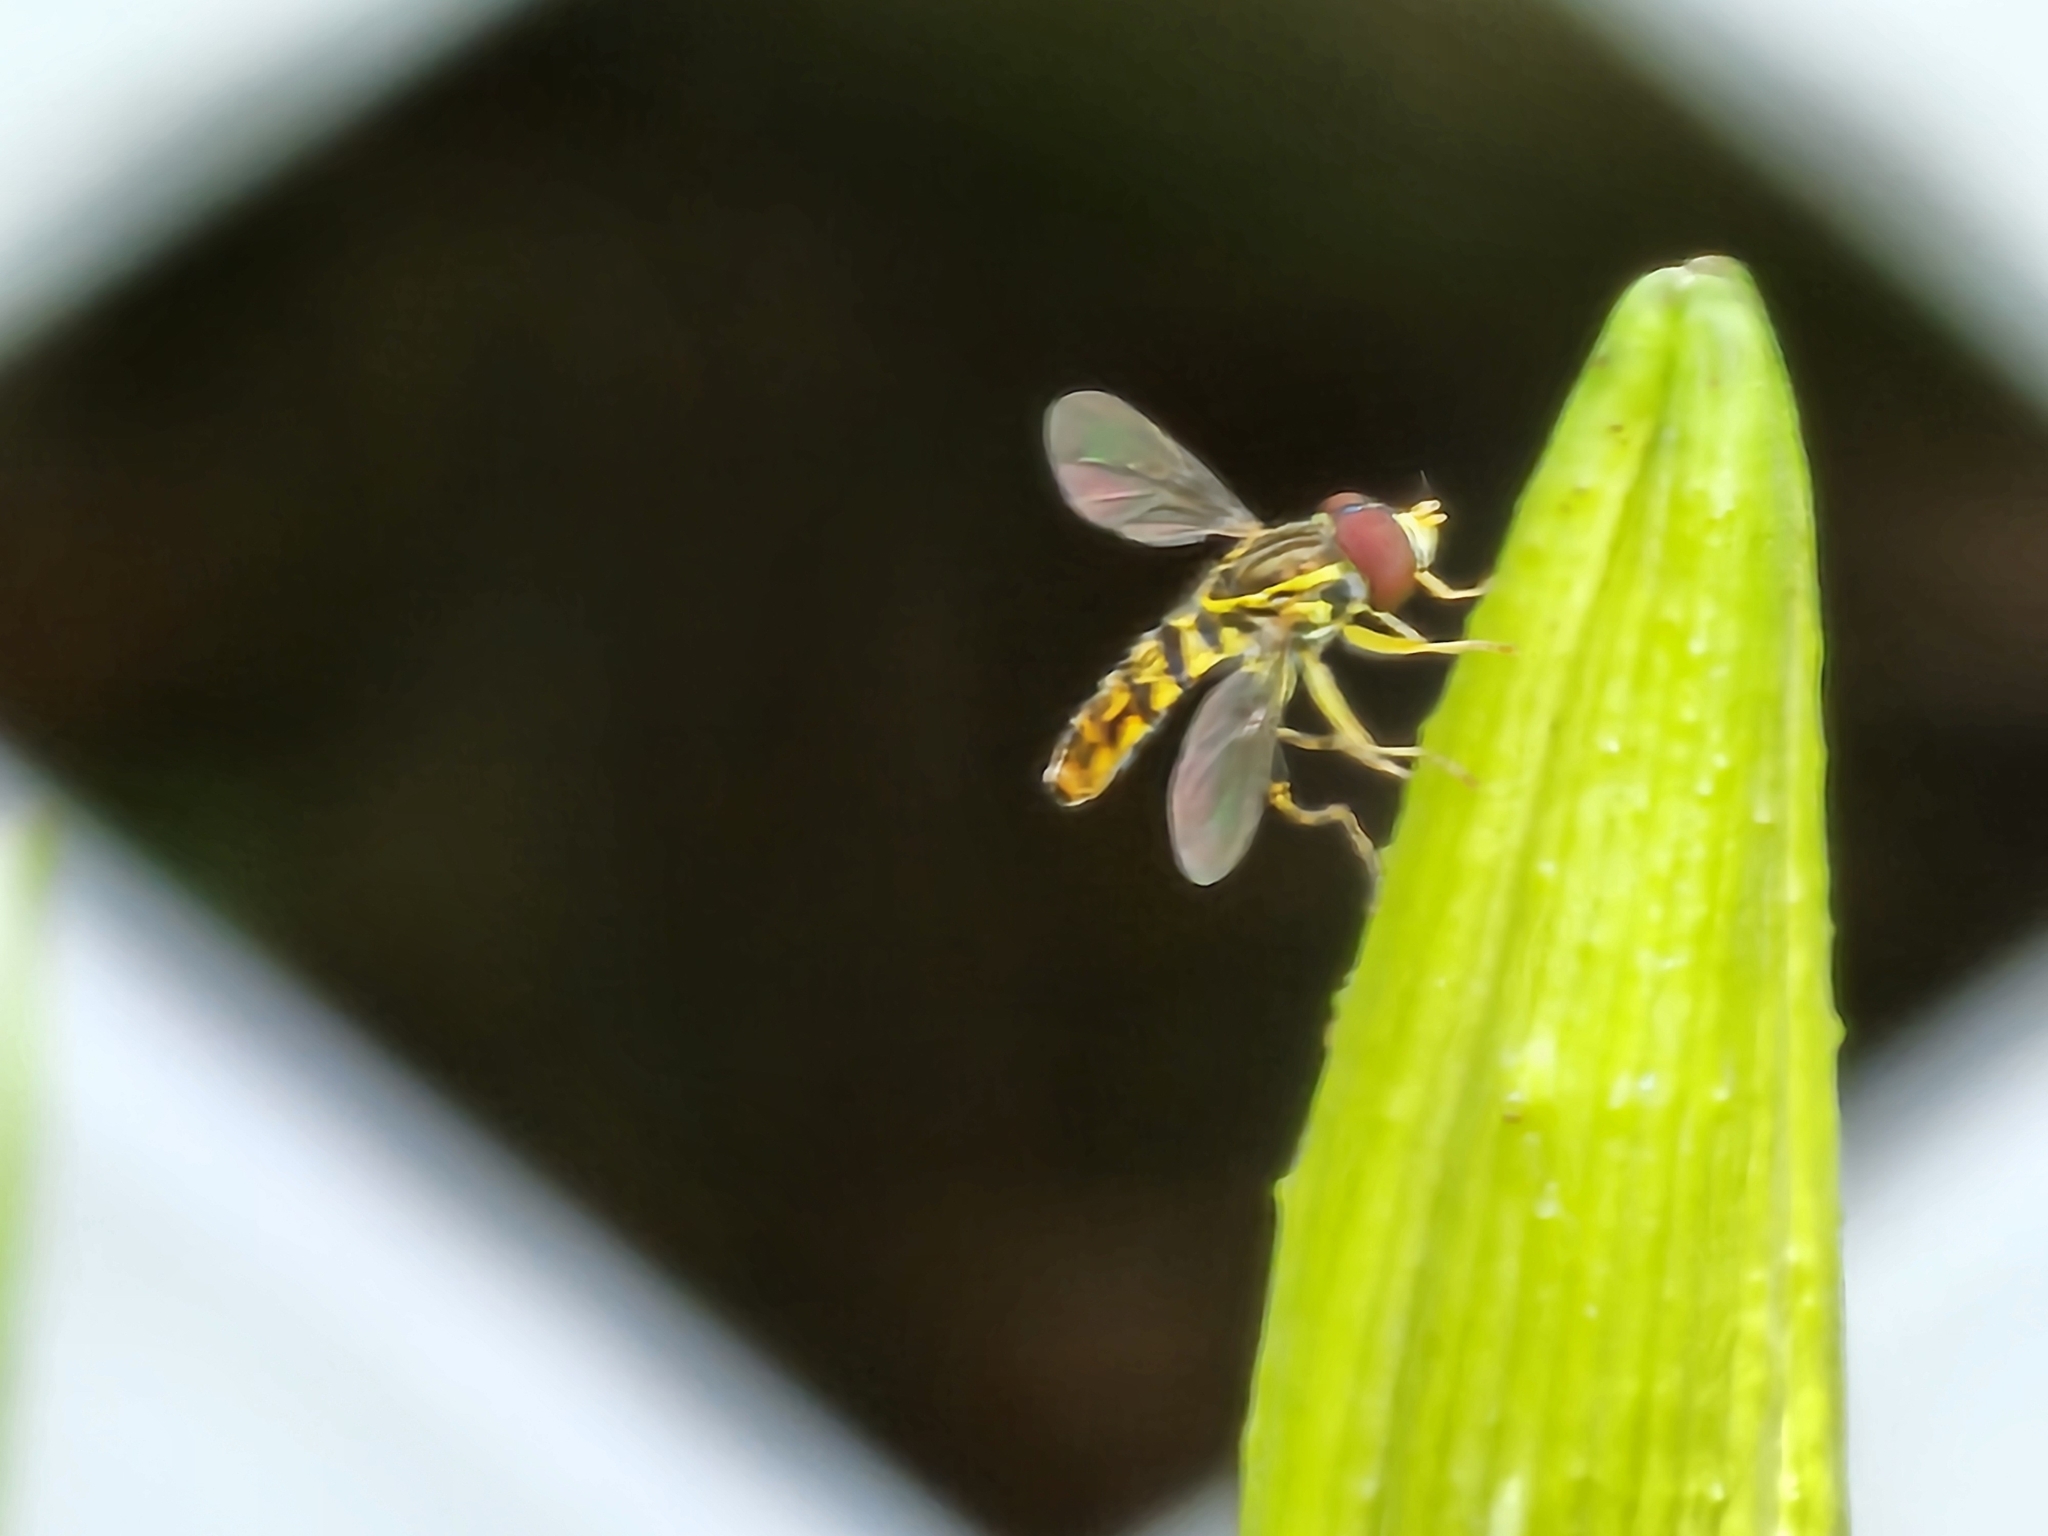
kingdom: Animalia
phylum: Arthropoda
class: Insecta
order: Diptera
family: Syrphidae
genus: Toxomerus
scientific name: Toxomerus geminatus
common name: Eastern calligrapher
